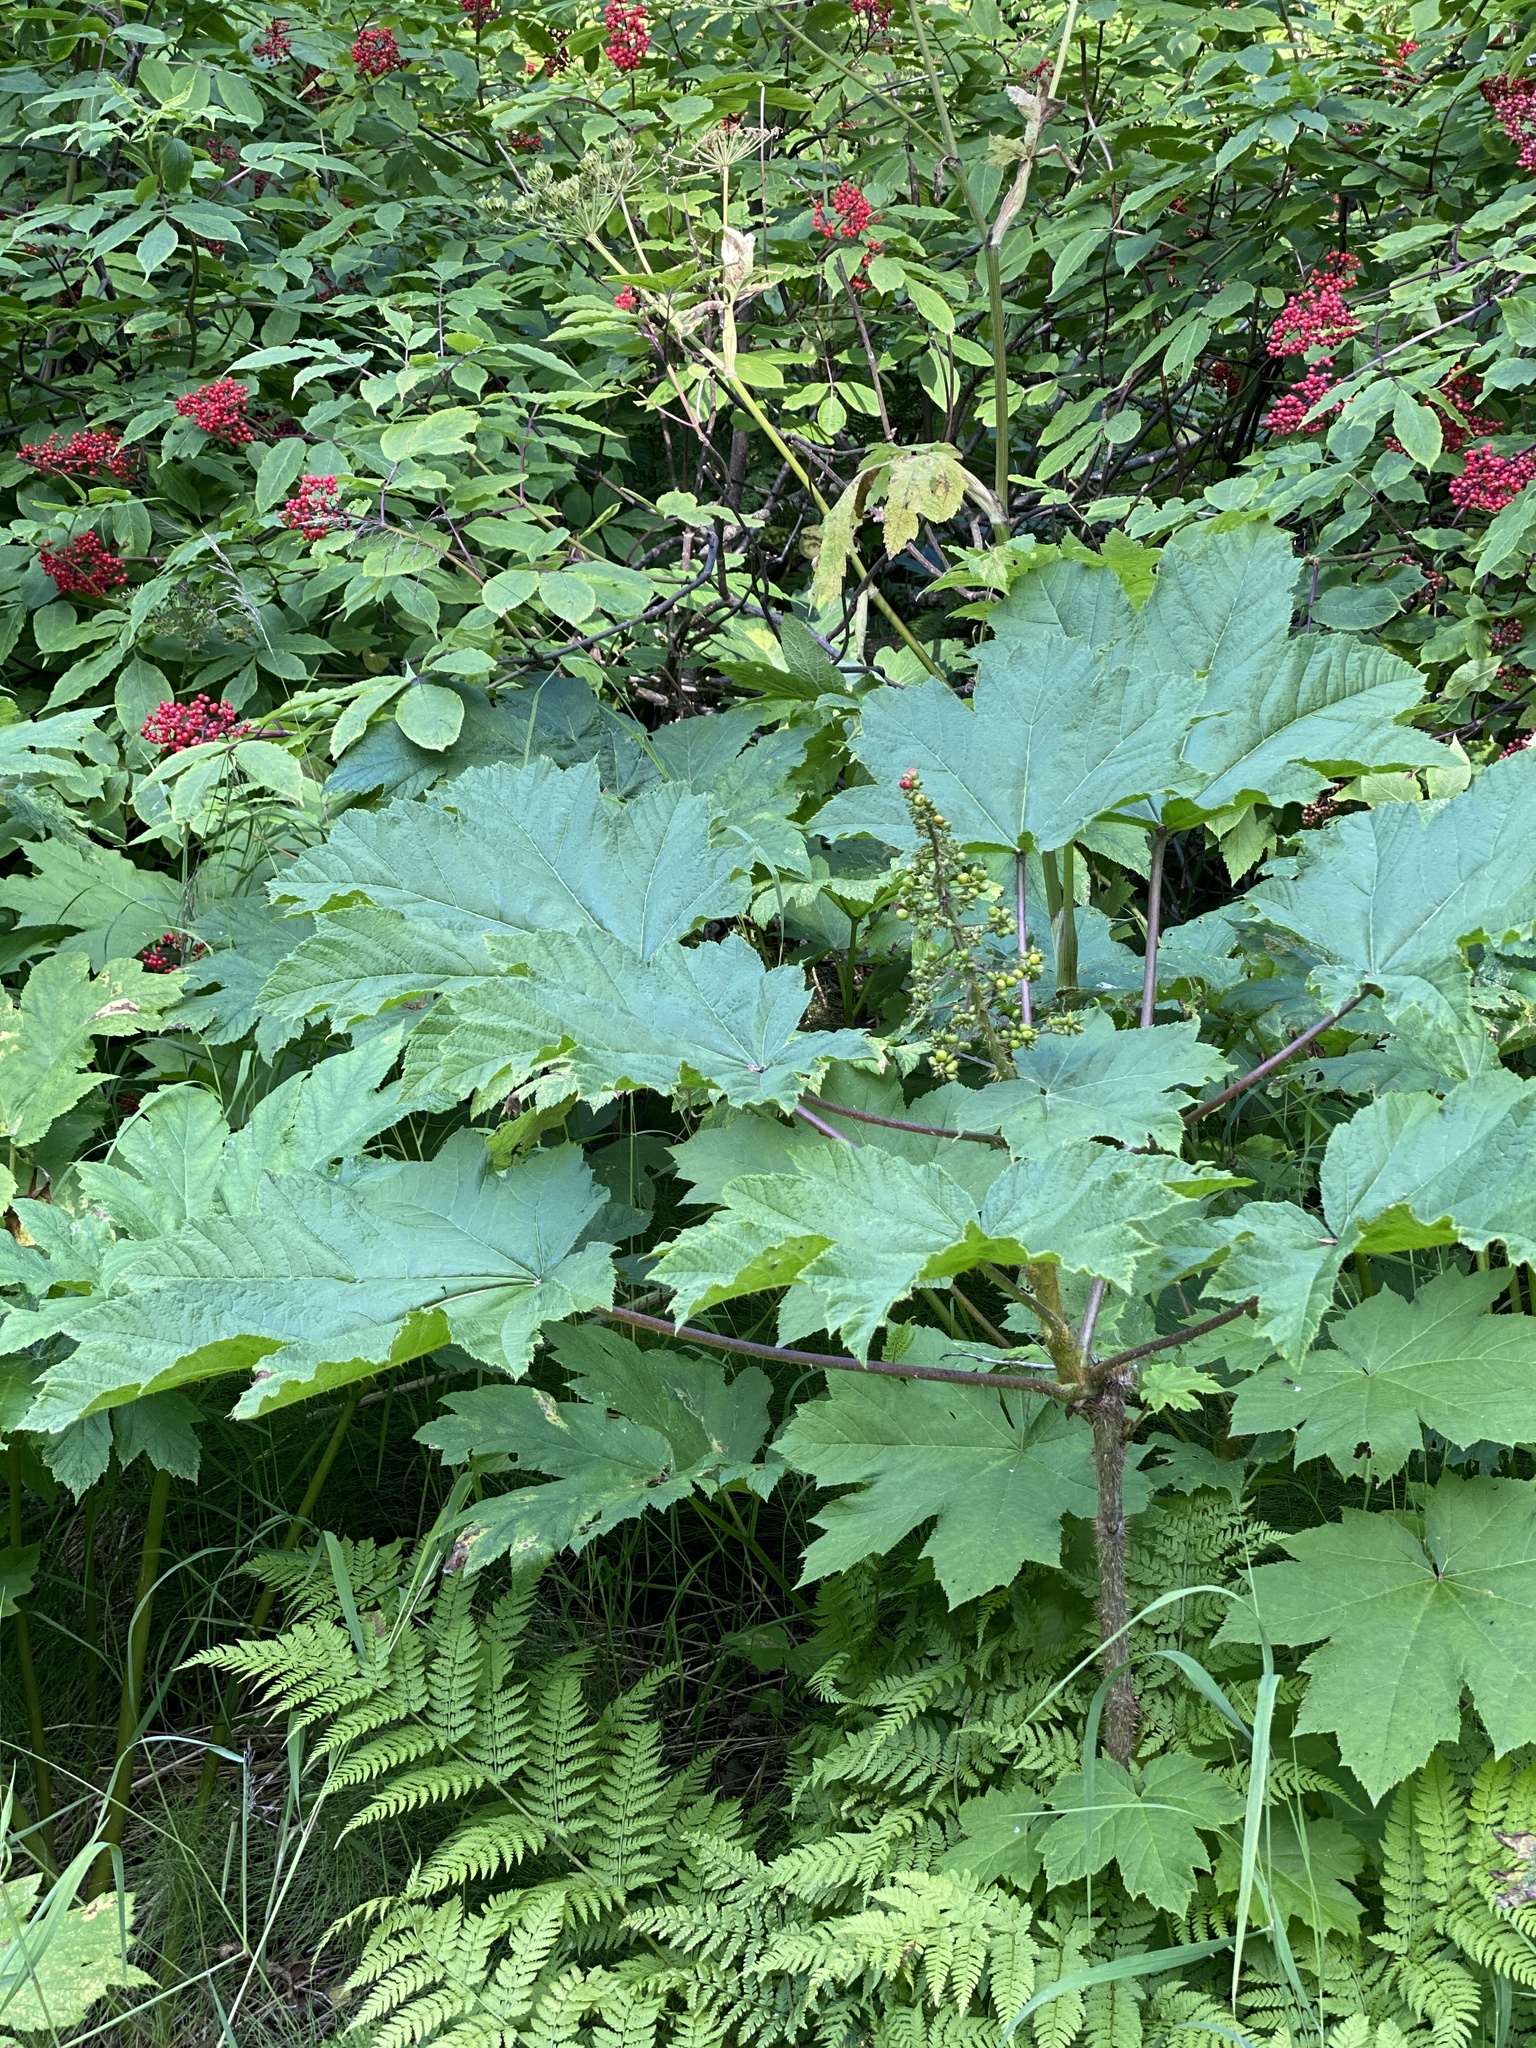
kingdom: Plantae
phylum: Tracheophyta
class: Magnoliopsida
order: Apiales
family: Araliaceae
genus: Oplopanax
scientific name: Oplopanax horridus
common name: Devil's walking-stick
